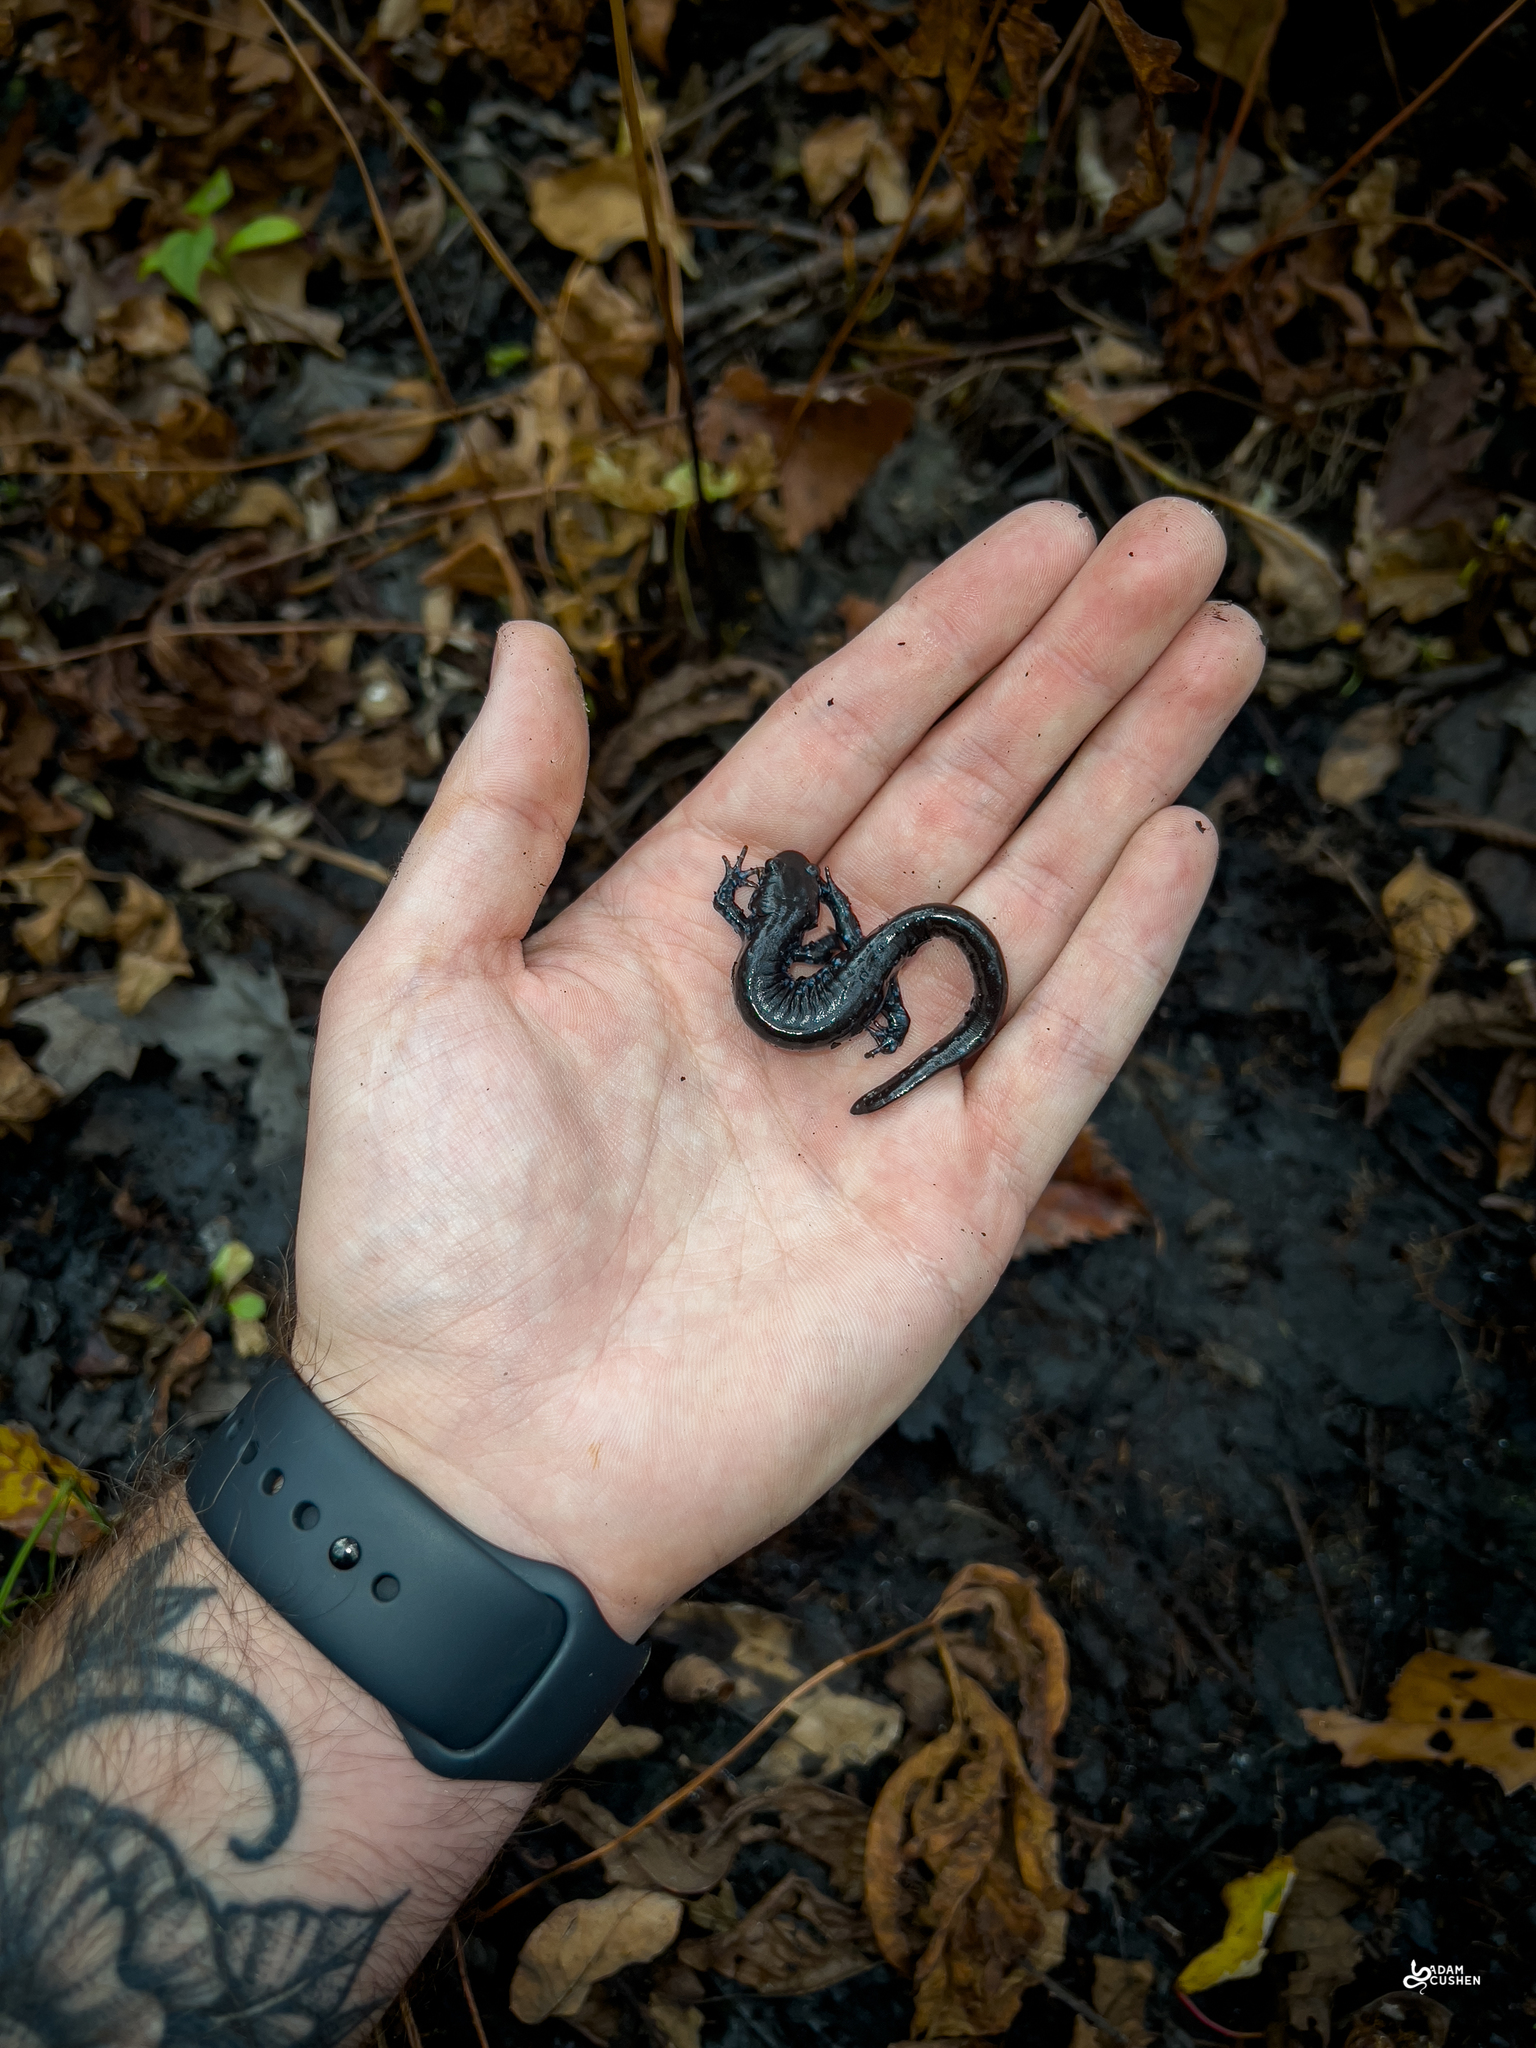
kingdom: Animalia
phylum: Chordata
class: Amphibia
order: Caudata
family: Ambystomatidae
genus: Ambystoma
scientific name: Ambystoma laterale
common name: Blue-spotted salamander
